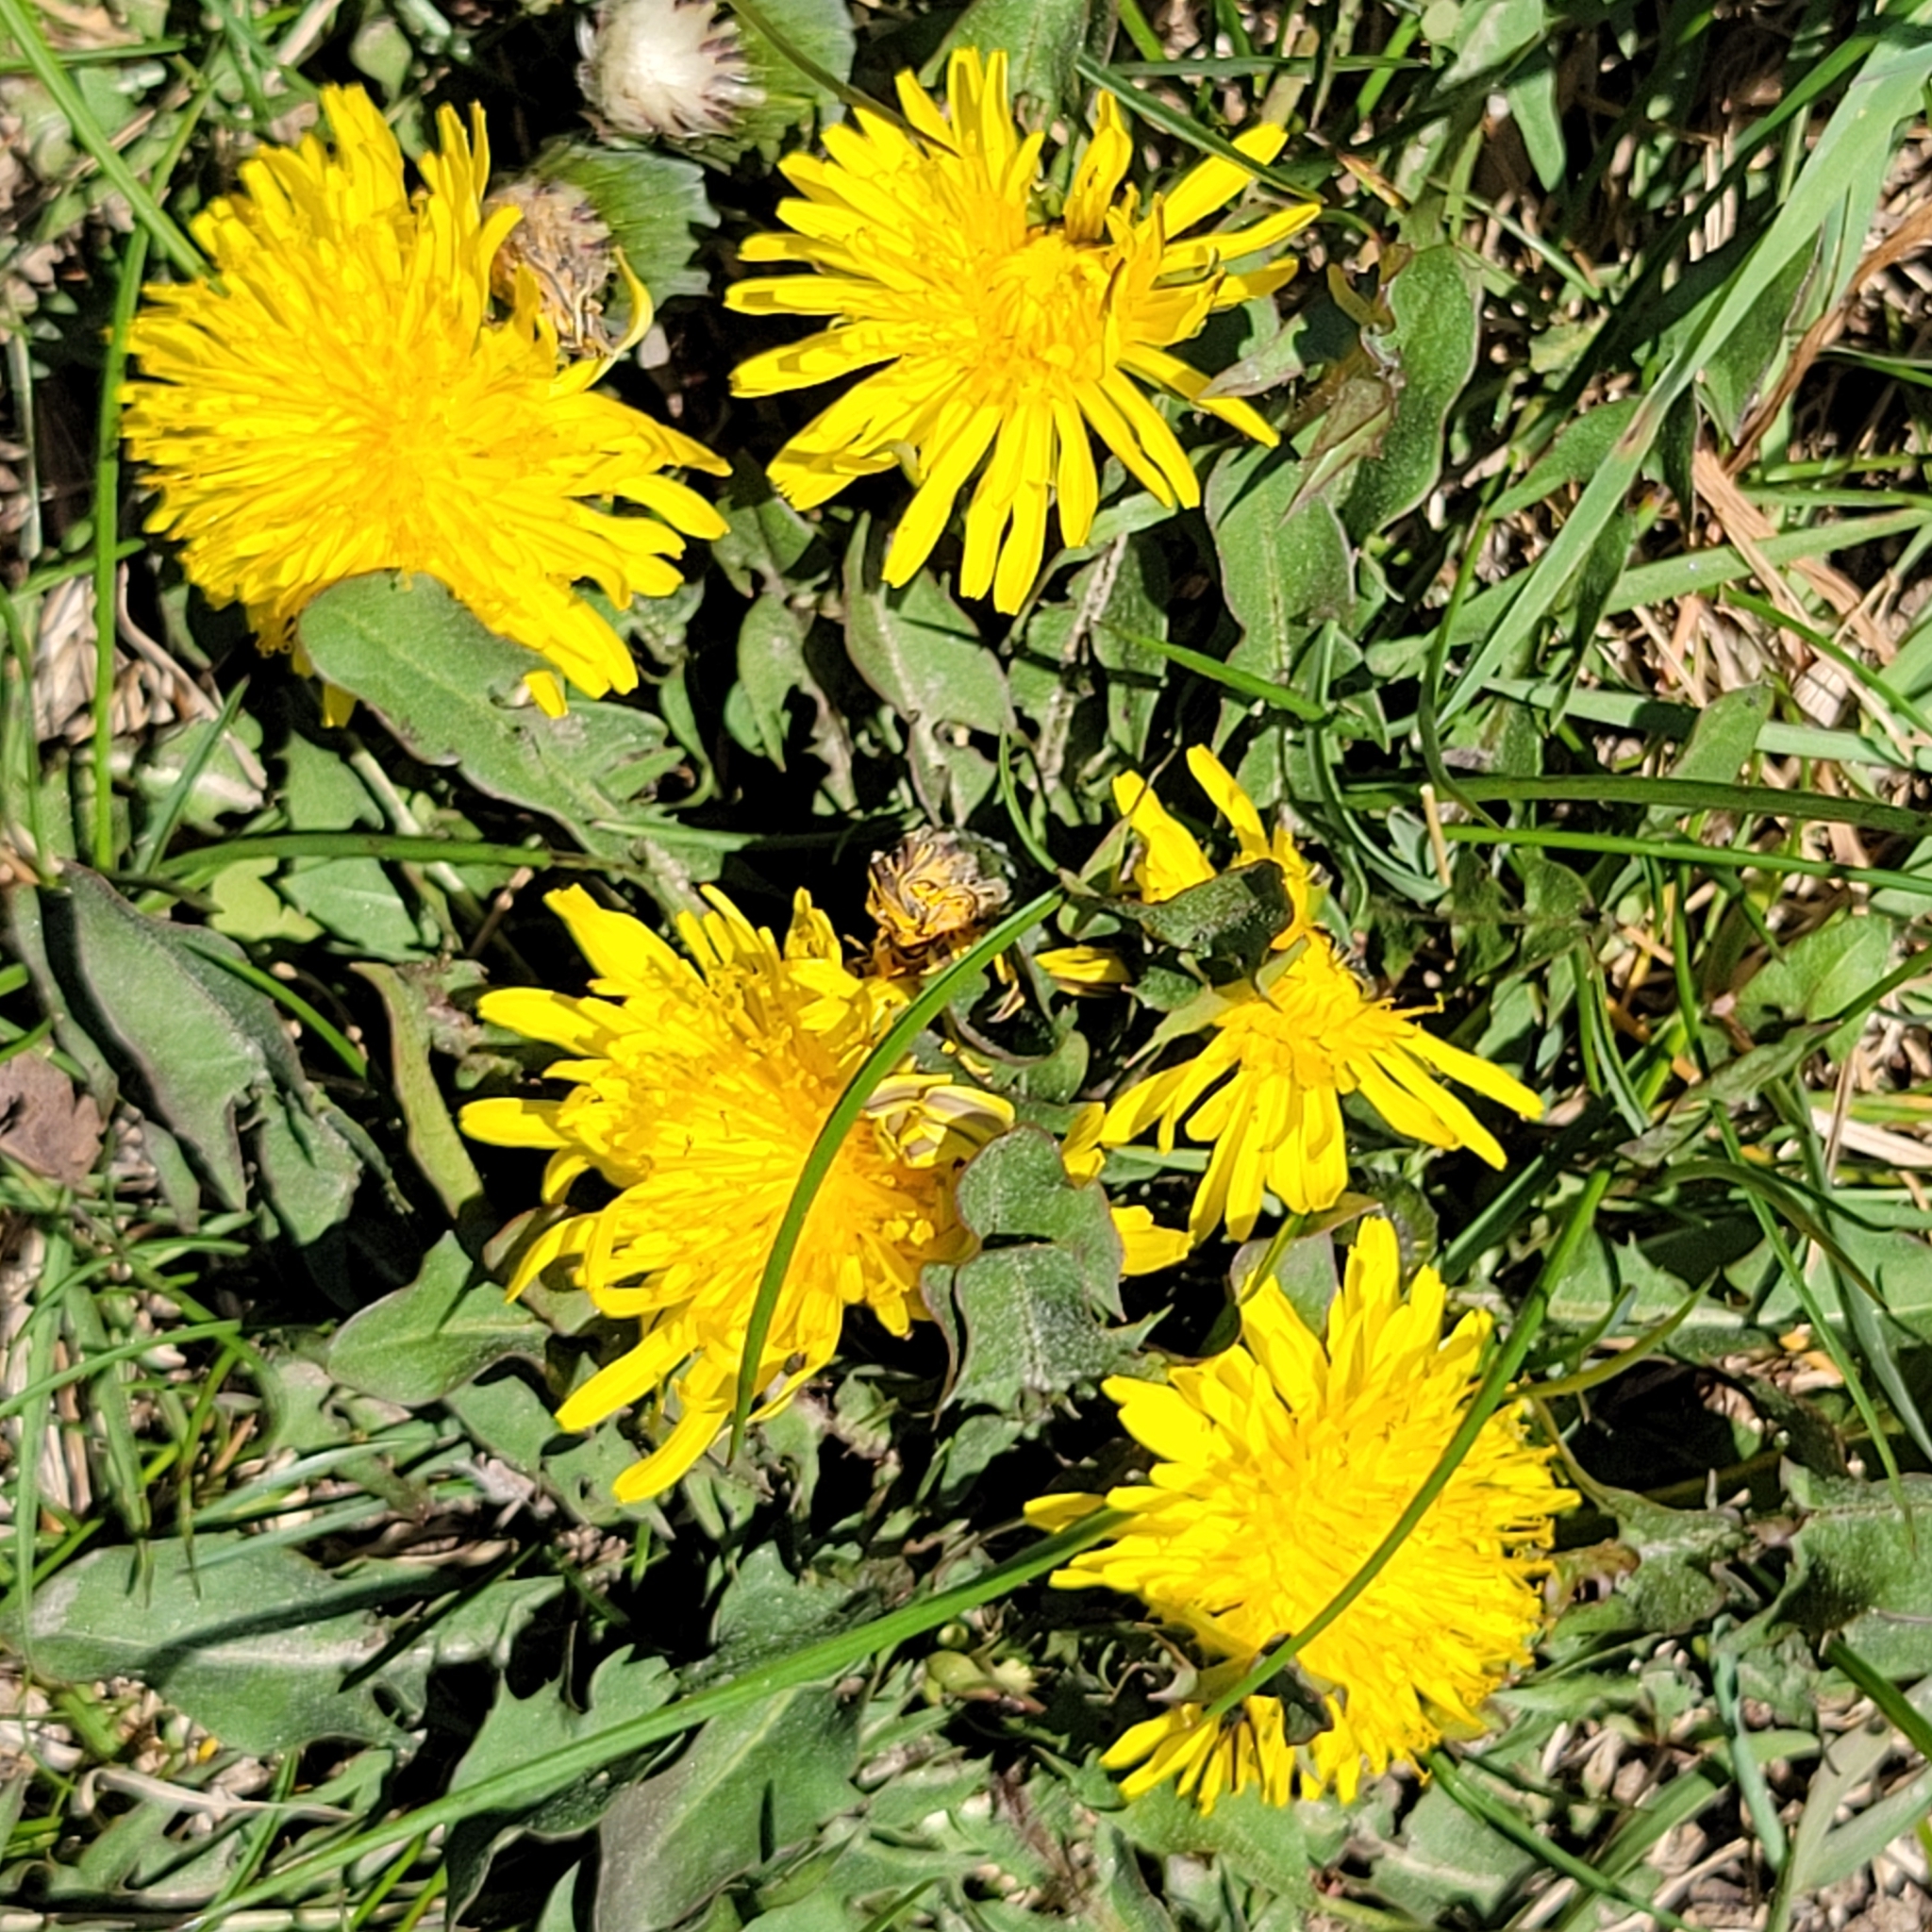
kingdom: Plantae
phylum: Tracheophyta
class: Magnoliopsida
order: Asterales
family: Asteraceae
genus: Taraxacum
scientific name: Taraxacum officinale
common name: Common dandelion
